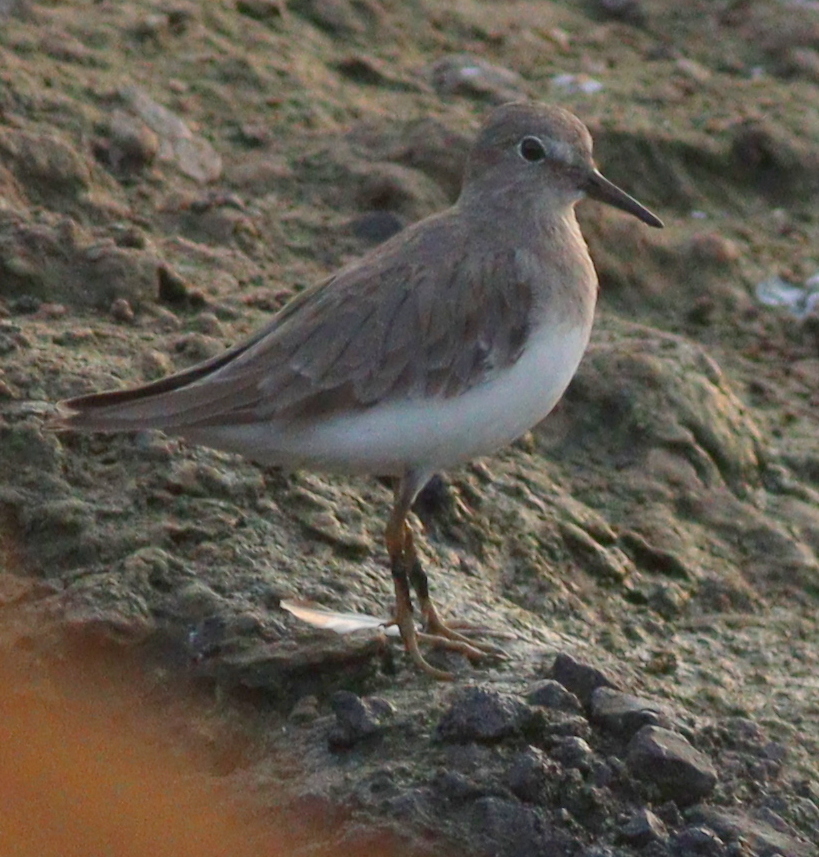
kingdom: Animalia
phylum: Chordata
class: Aves
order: Charadriiformes
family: Scolopacidae
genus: Calidris
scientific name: Calidris temminckii
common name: Temminck's stint
